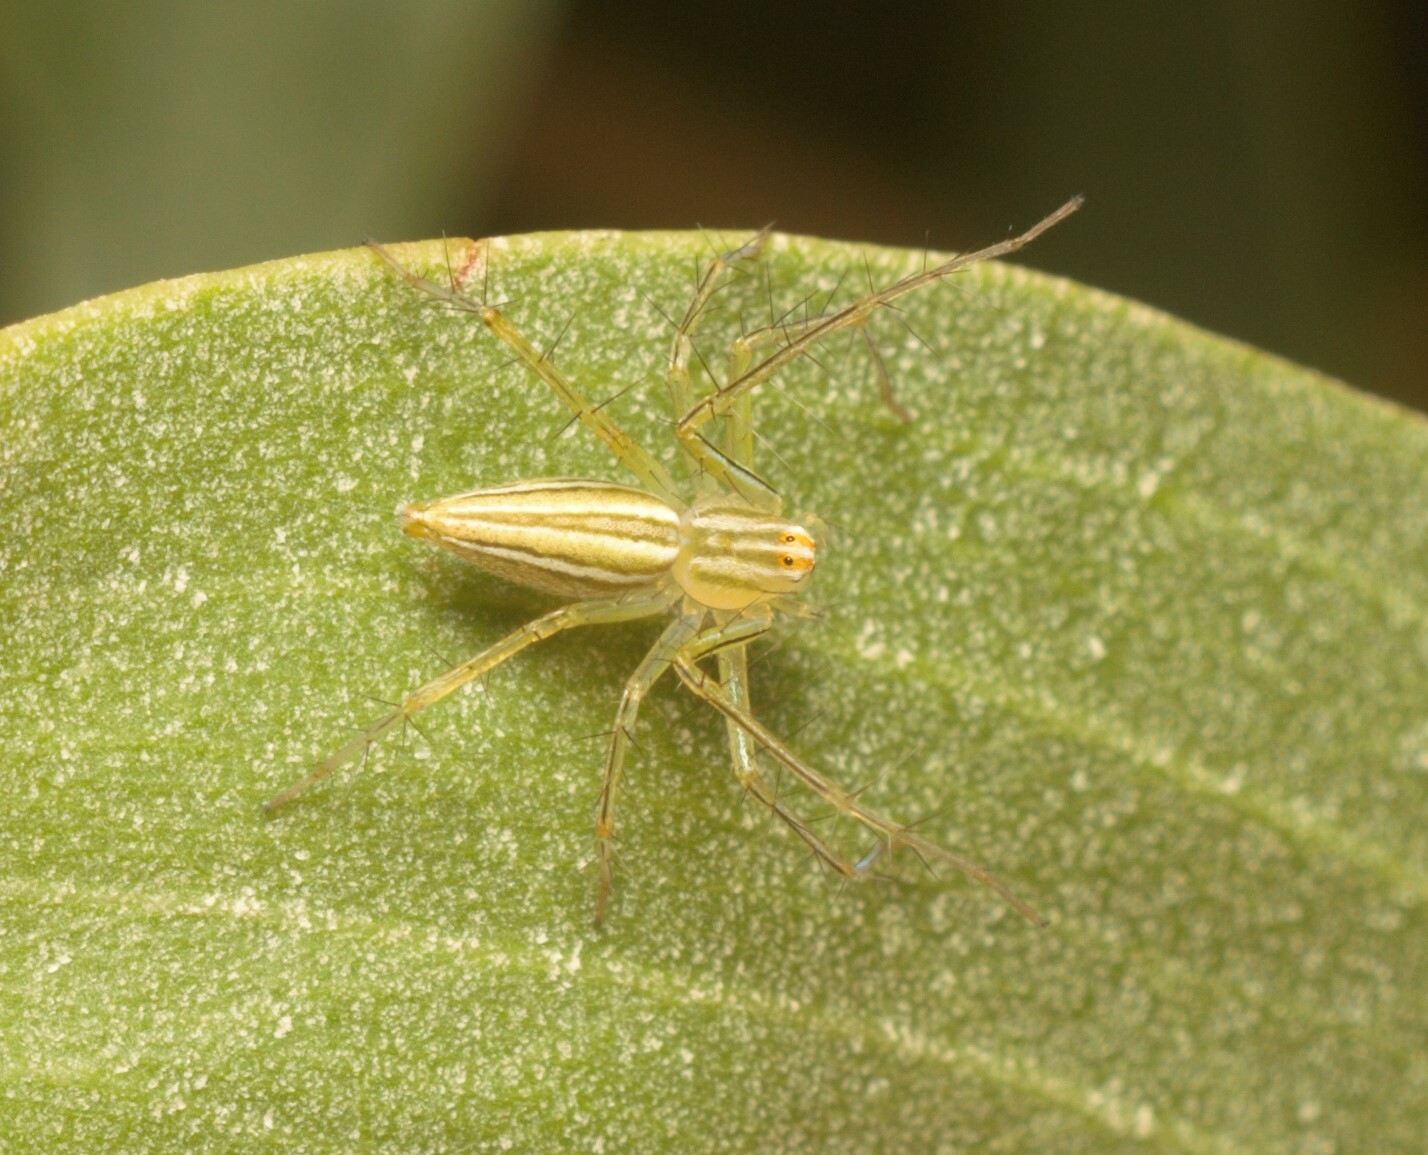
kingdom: Animalia
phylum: Arthropoda
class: Arachnida
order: Araneae
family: Oxyopidae
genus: Oxyopes
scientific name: Oxyopes macilentus
